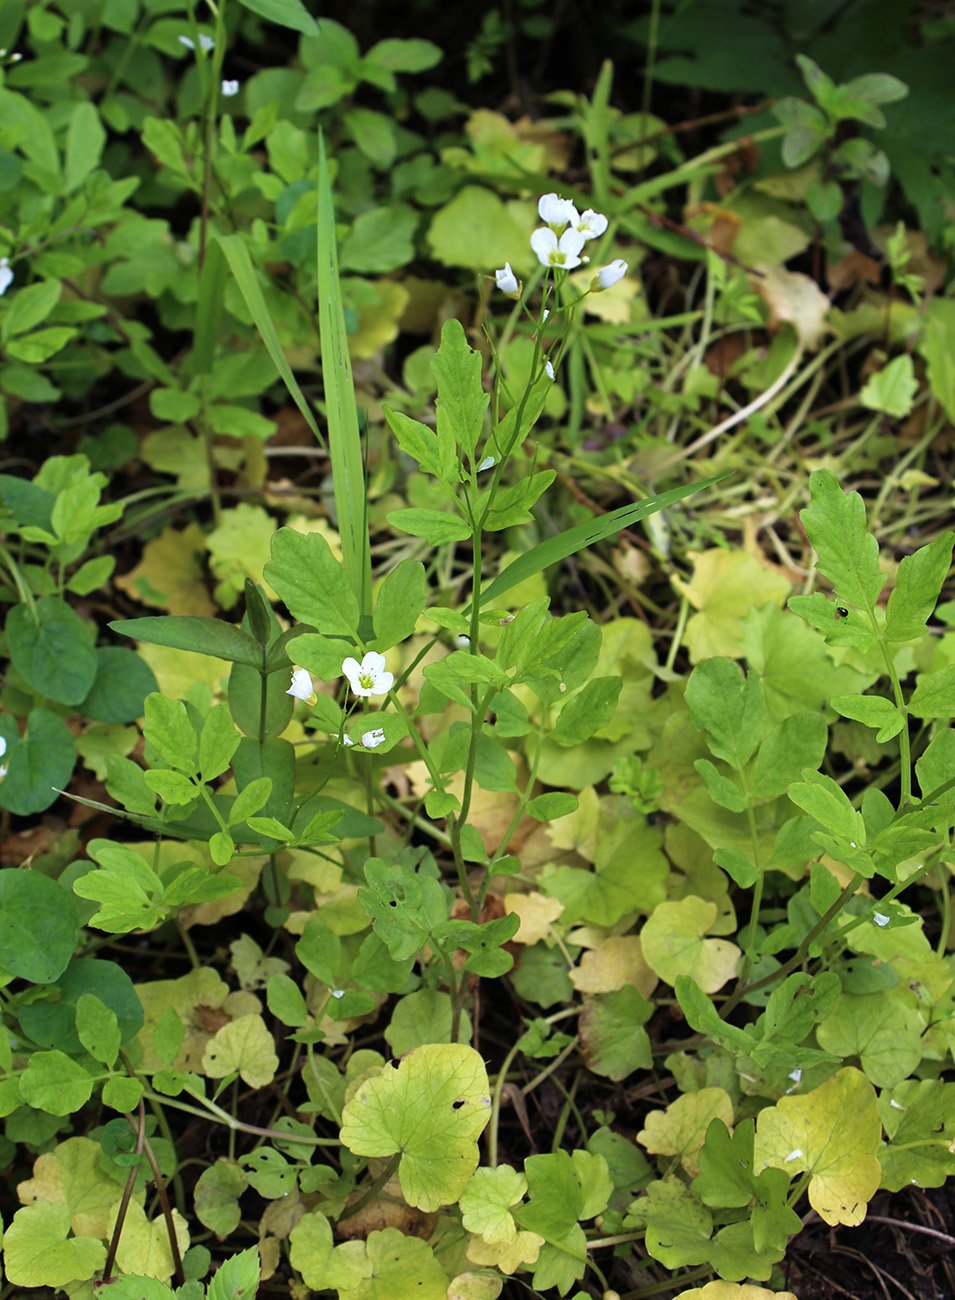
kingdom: Plantae
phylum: Tracheophyta
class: Magnoliopsida
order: Brassicales
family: Brassicaceae
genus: Cardamine
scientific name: Cardamine amara
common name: Large bitter-cress
